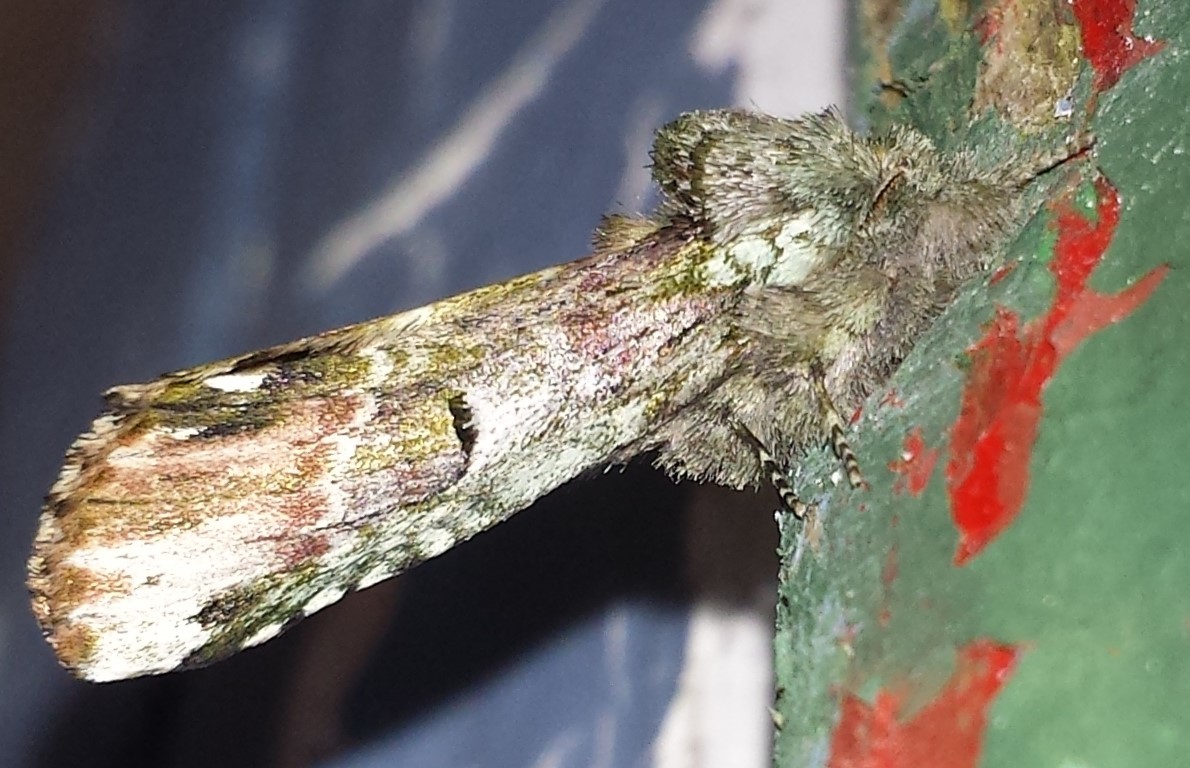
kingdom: Animalia
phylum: Arthropoda
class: Insecta
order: Lepidoptera
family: Notodontidae
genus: Schizura
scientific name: Schizura
